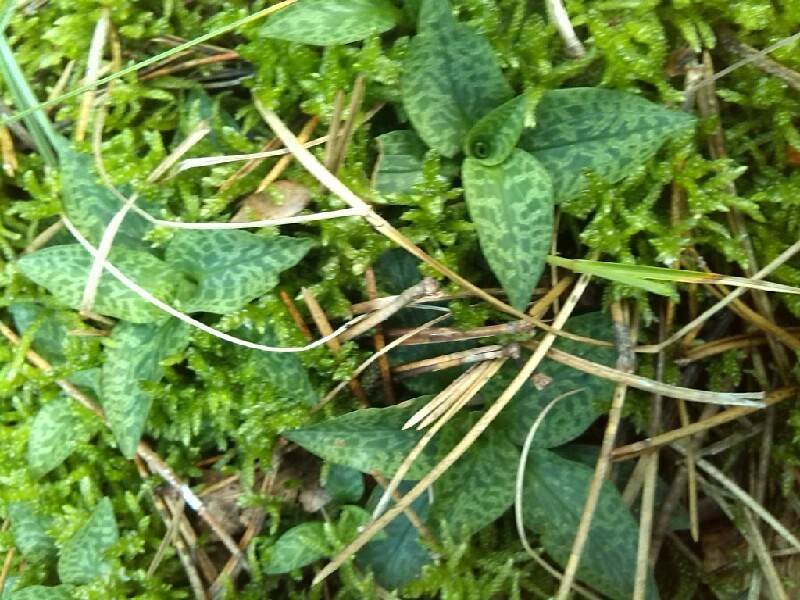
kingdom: Plantae
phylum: Tracheophyta
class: Liliopsida
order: Asparagales
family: Orchidaceae
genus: Goodyera
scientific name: Goodyera repens
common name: Creeping lady's-tresses
